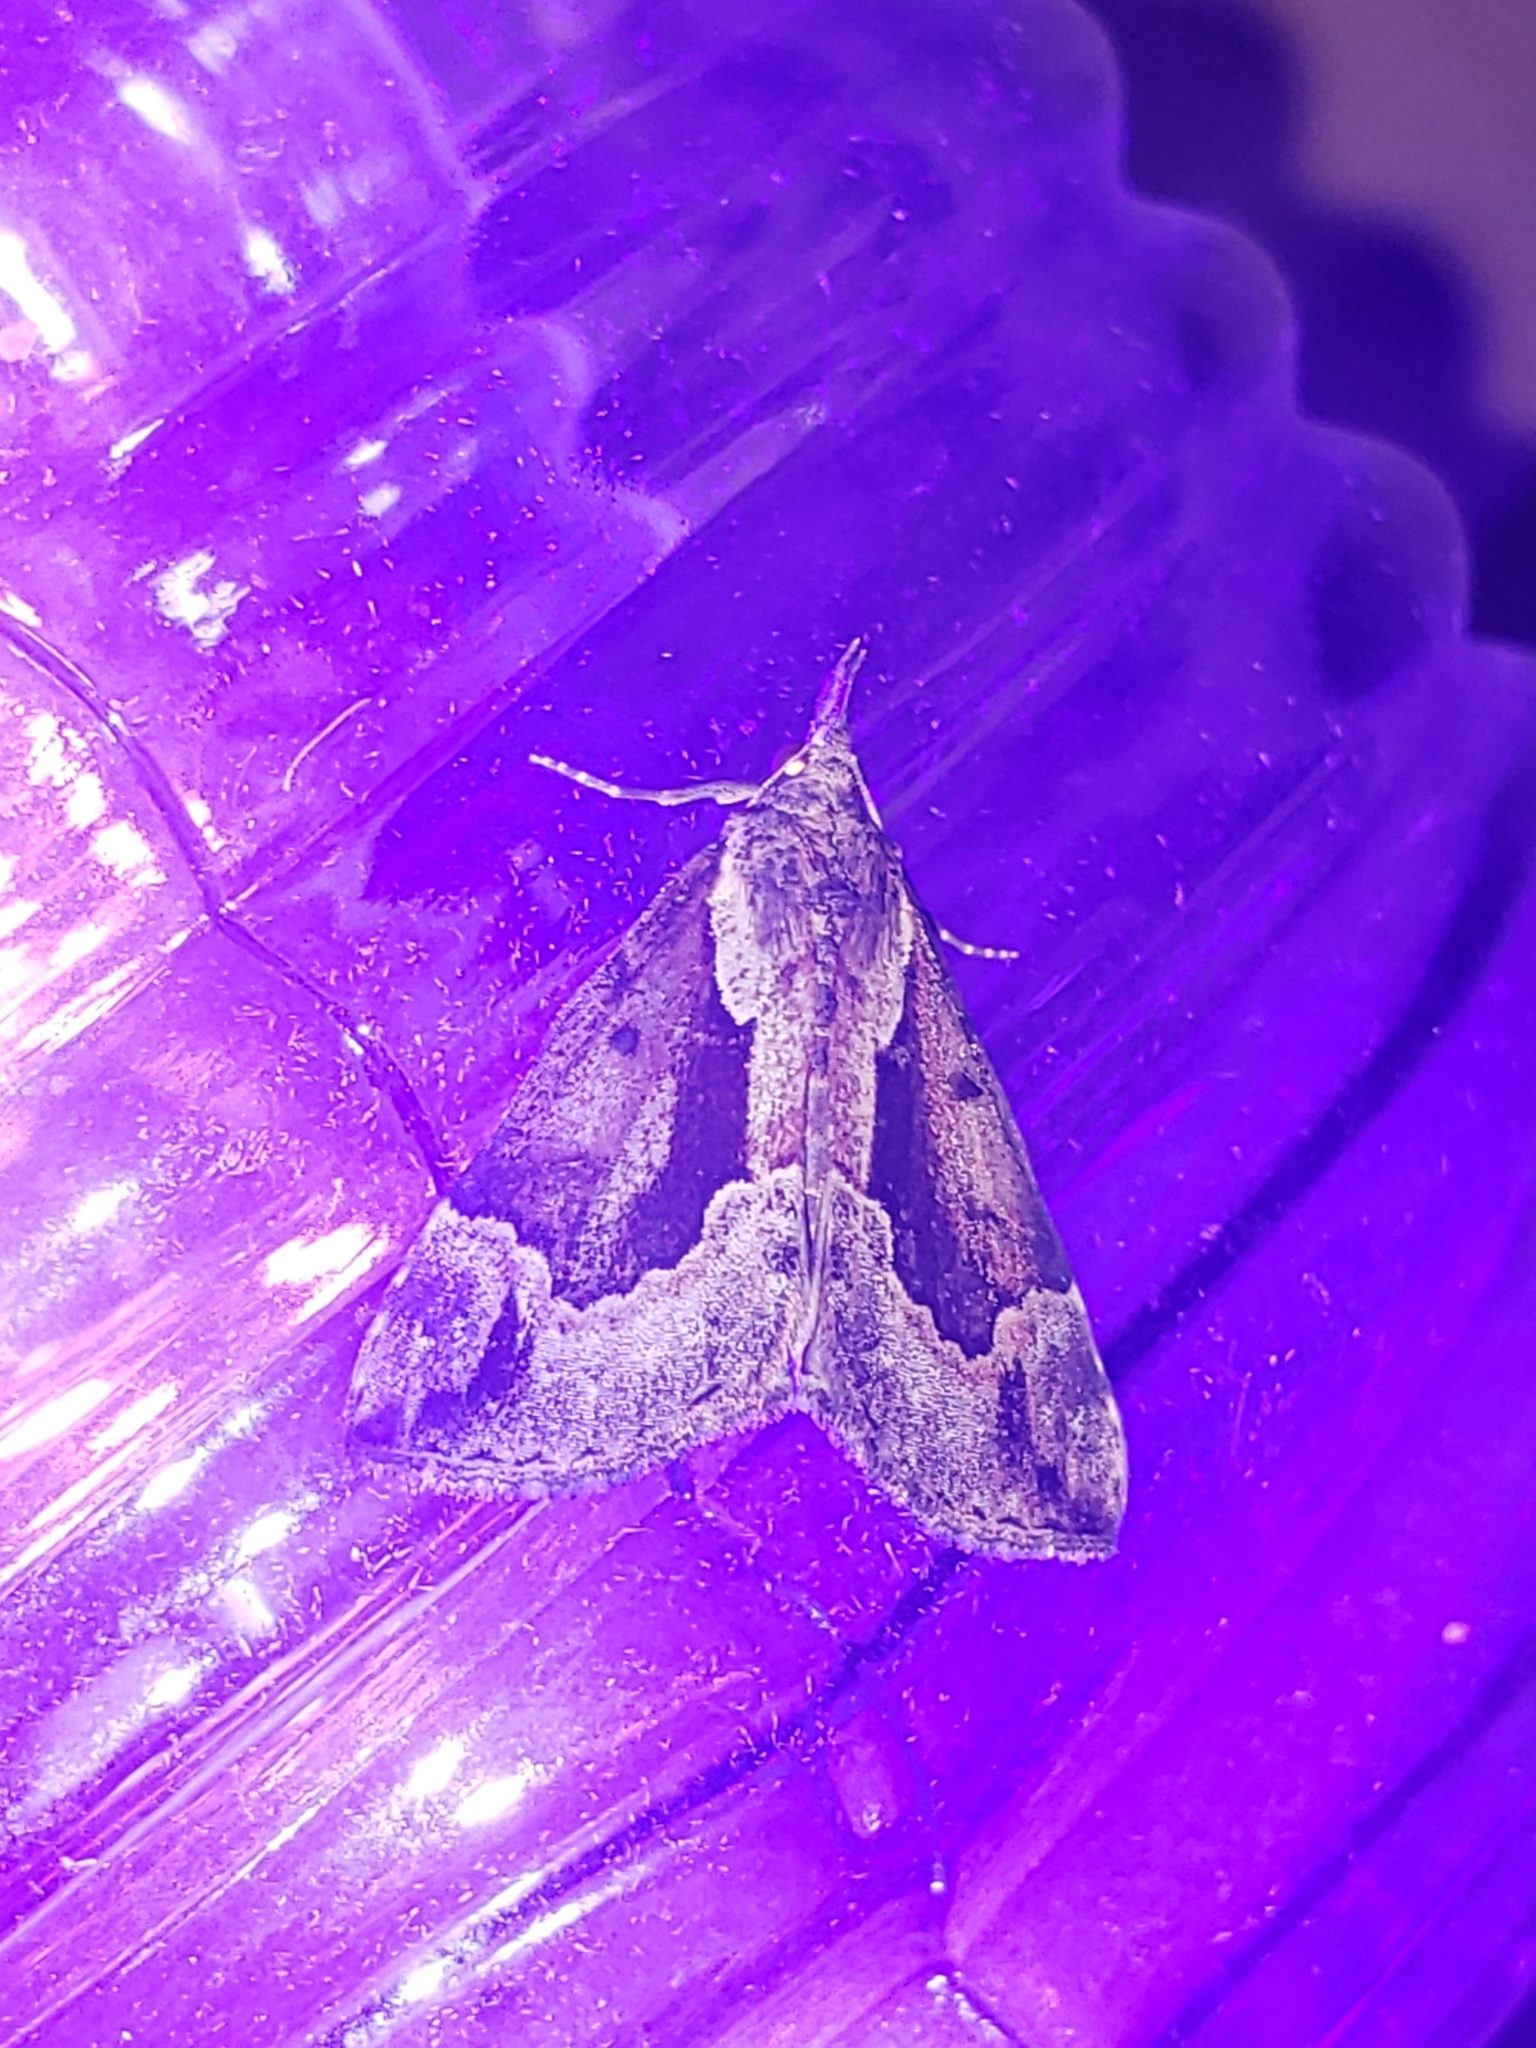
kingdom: Animalia
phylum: Arthropoda
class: Insecta
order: Lepidoptera
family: Erebidae
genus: Hypena
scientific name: Hypena baltimoralis
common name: Baltimore snout
